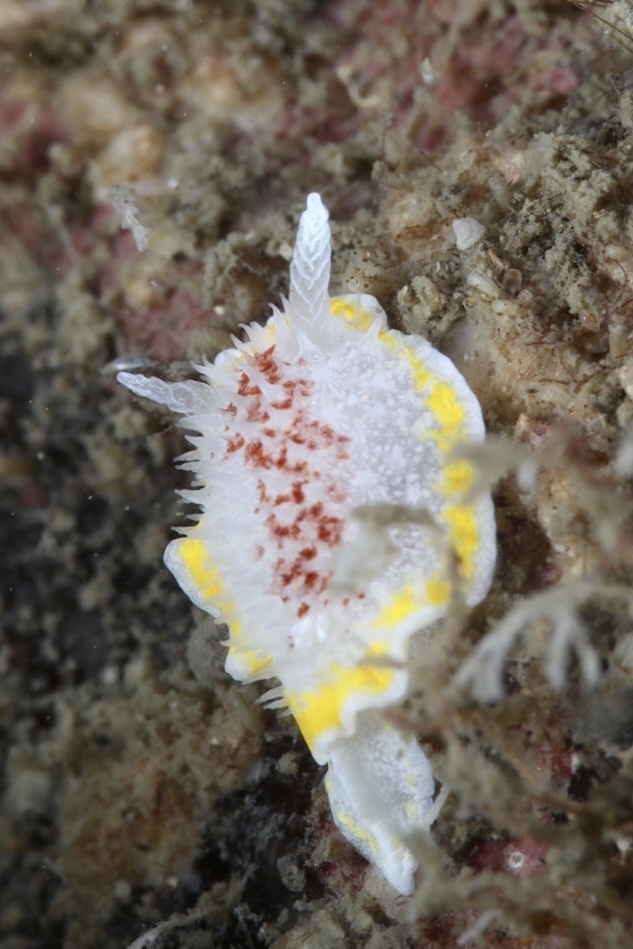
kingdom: Animalia
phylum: Mollusca
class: Gastropoda
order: Nudibranchia
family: Calycidorididae
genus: Diaphorodoris
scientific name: Diaphorodoris luteocincta
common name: Fried egg nudibranch
